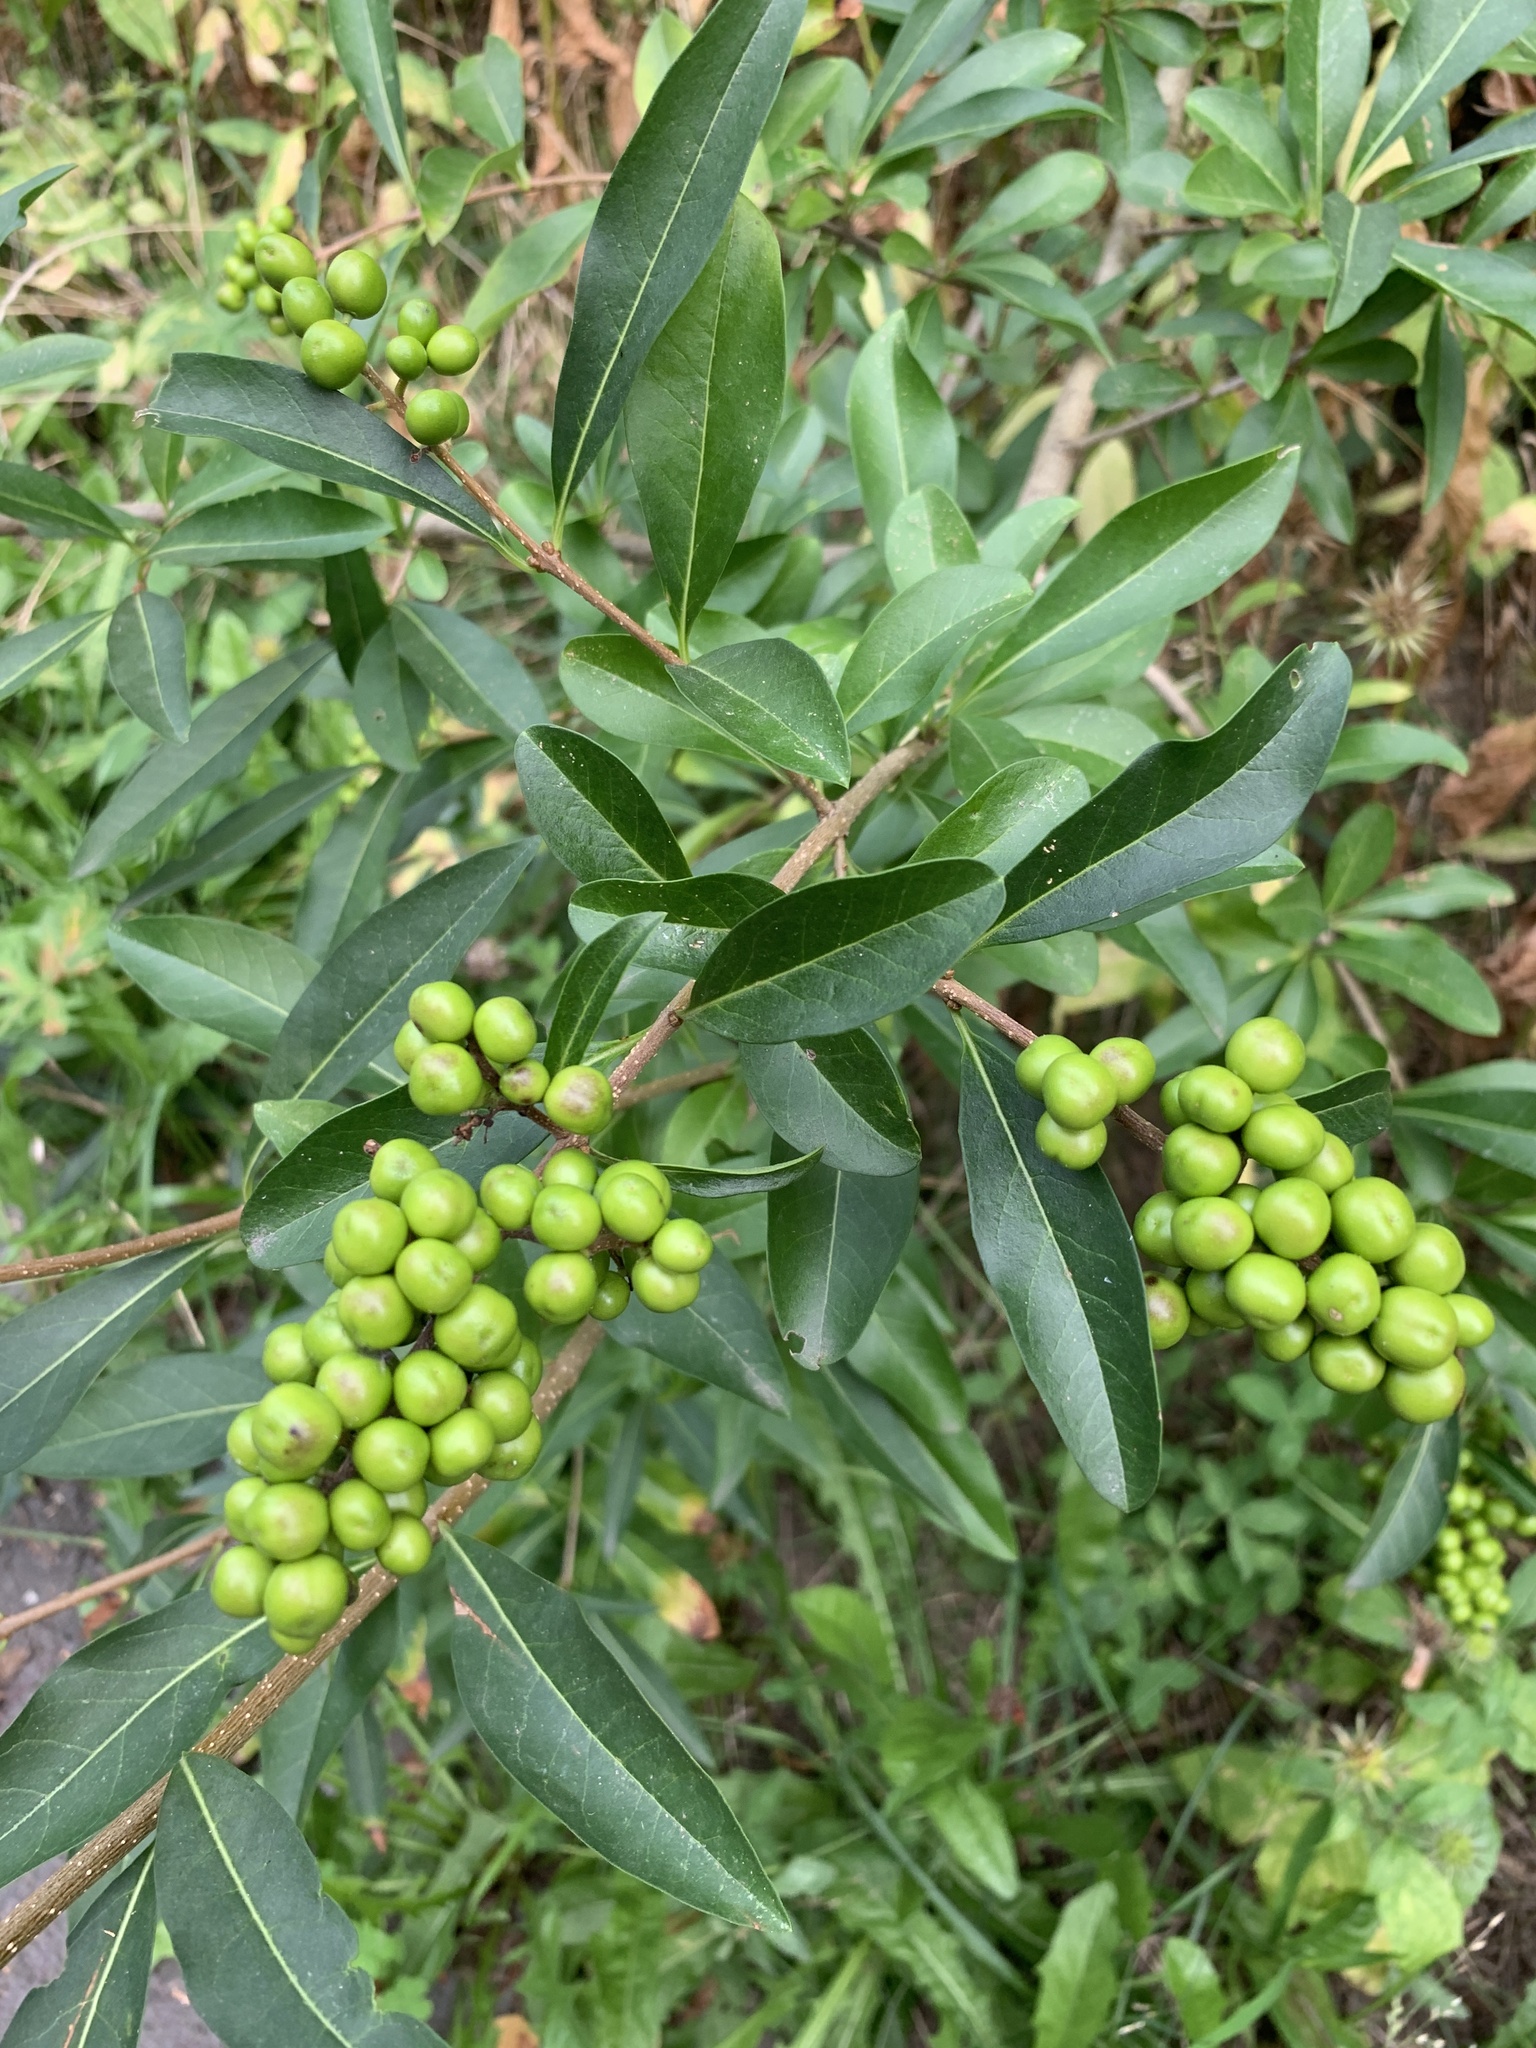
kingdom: Plantae
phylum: Tracheophyta
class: Magnoliopsida
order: Lamiales
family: Oleaceae
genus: Ligustrum
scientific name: Ligustrum vulgare
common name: Wild privet
